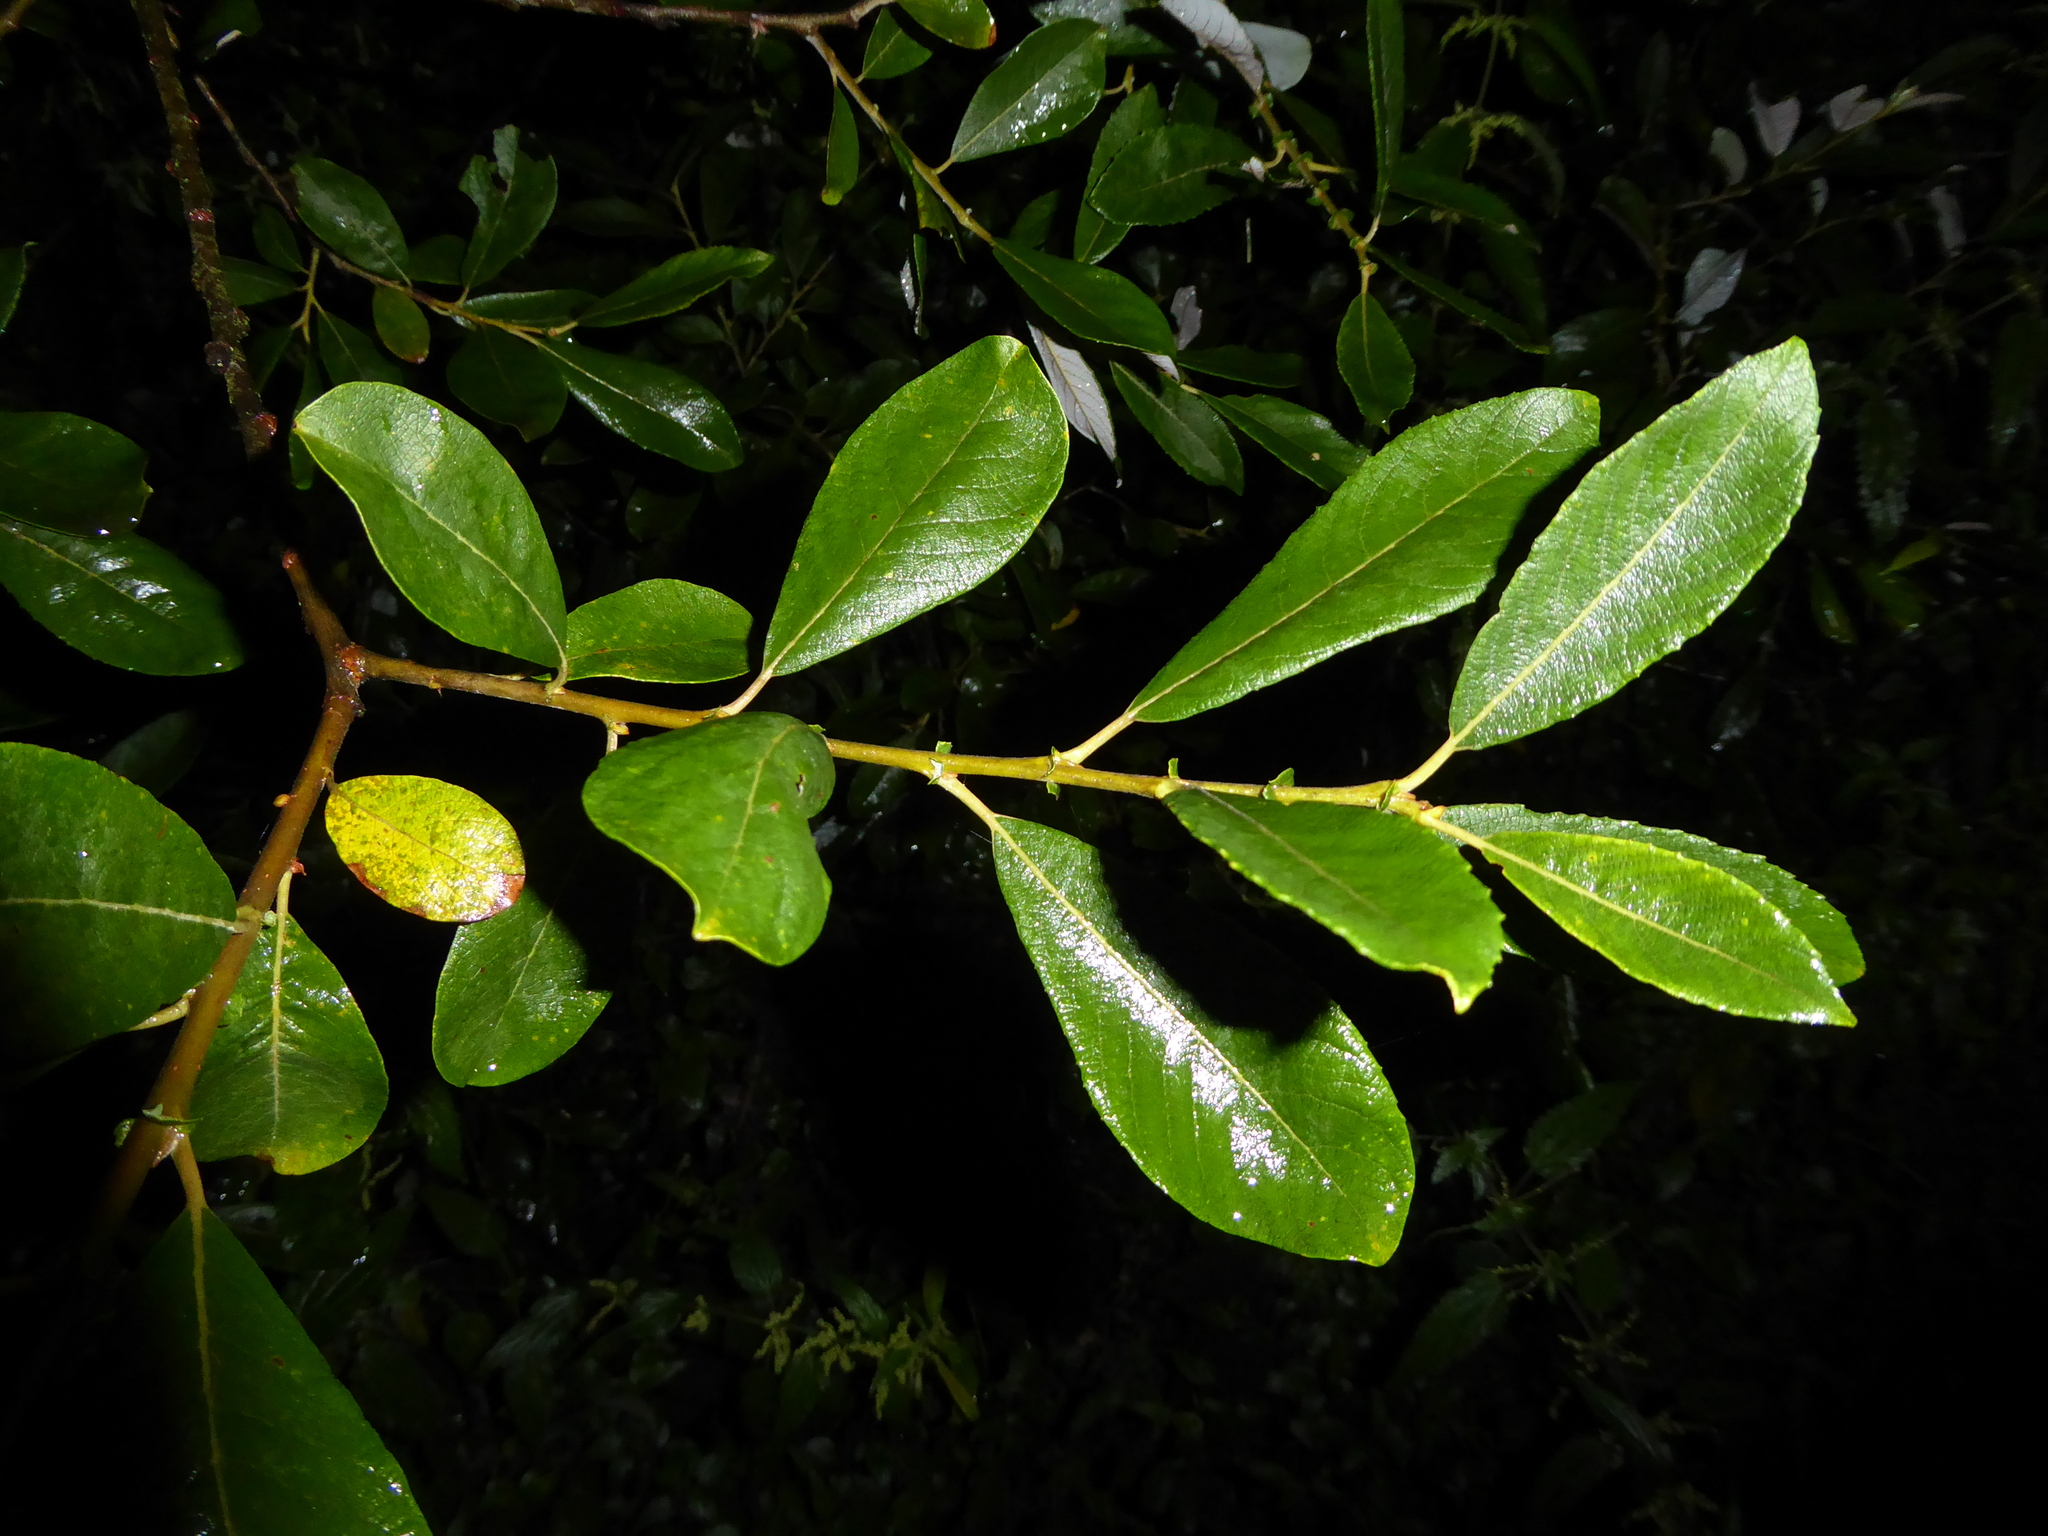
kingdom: Plantae
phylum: Tracheophyta
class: Magnoliopsida
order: Malpighiales
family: Salicaceae
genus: Salix
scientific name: Salix atrocinerea
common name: Rusty willow
